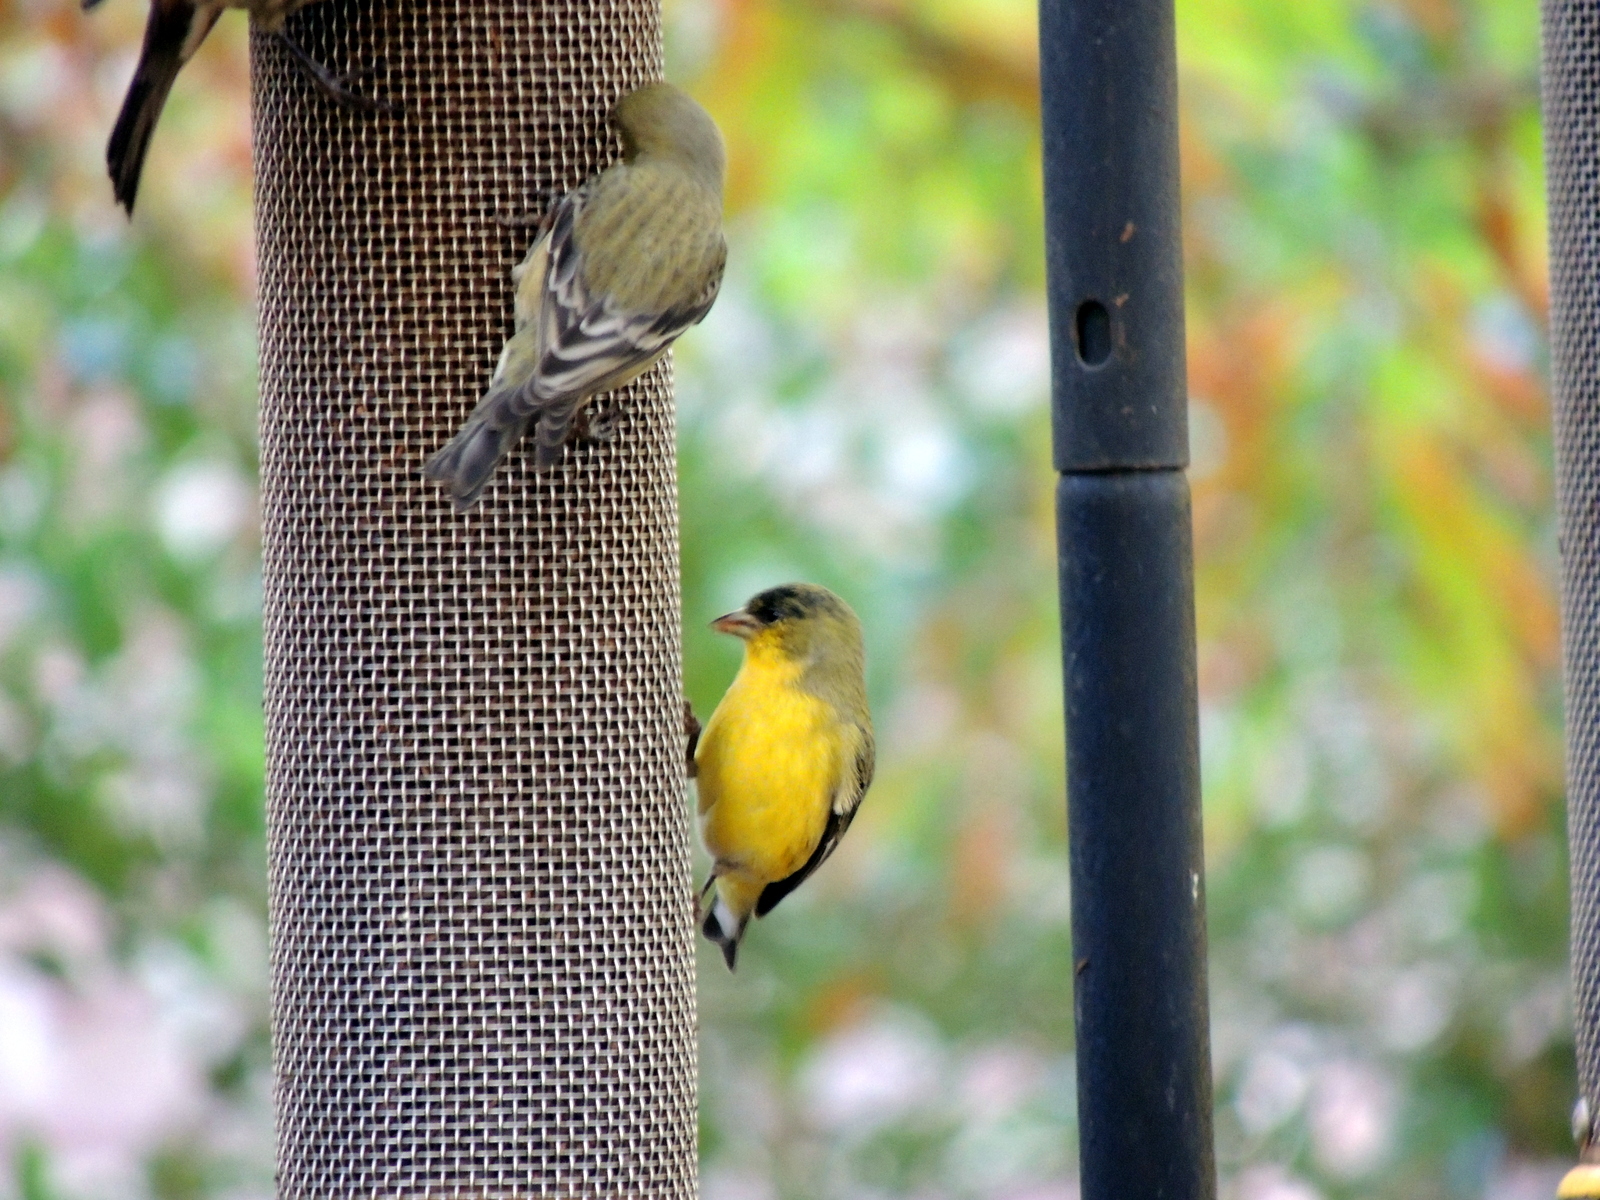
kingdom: Animalia
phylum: Chordata
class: Aves
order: Passeriformes
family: Fringillidae
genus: Spinus
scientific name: Spinus psaltria
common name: Lesser goldfinch
